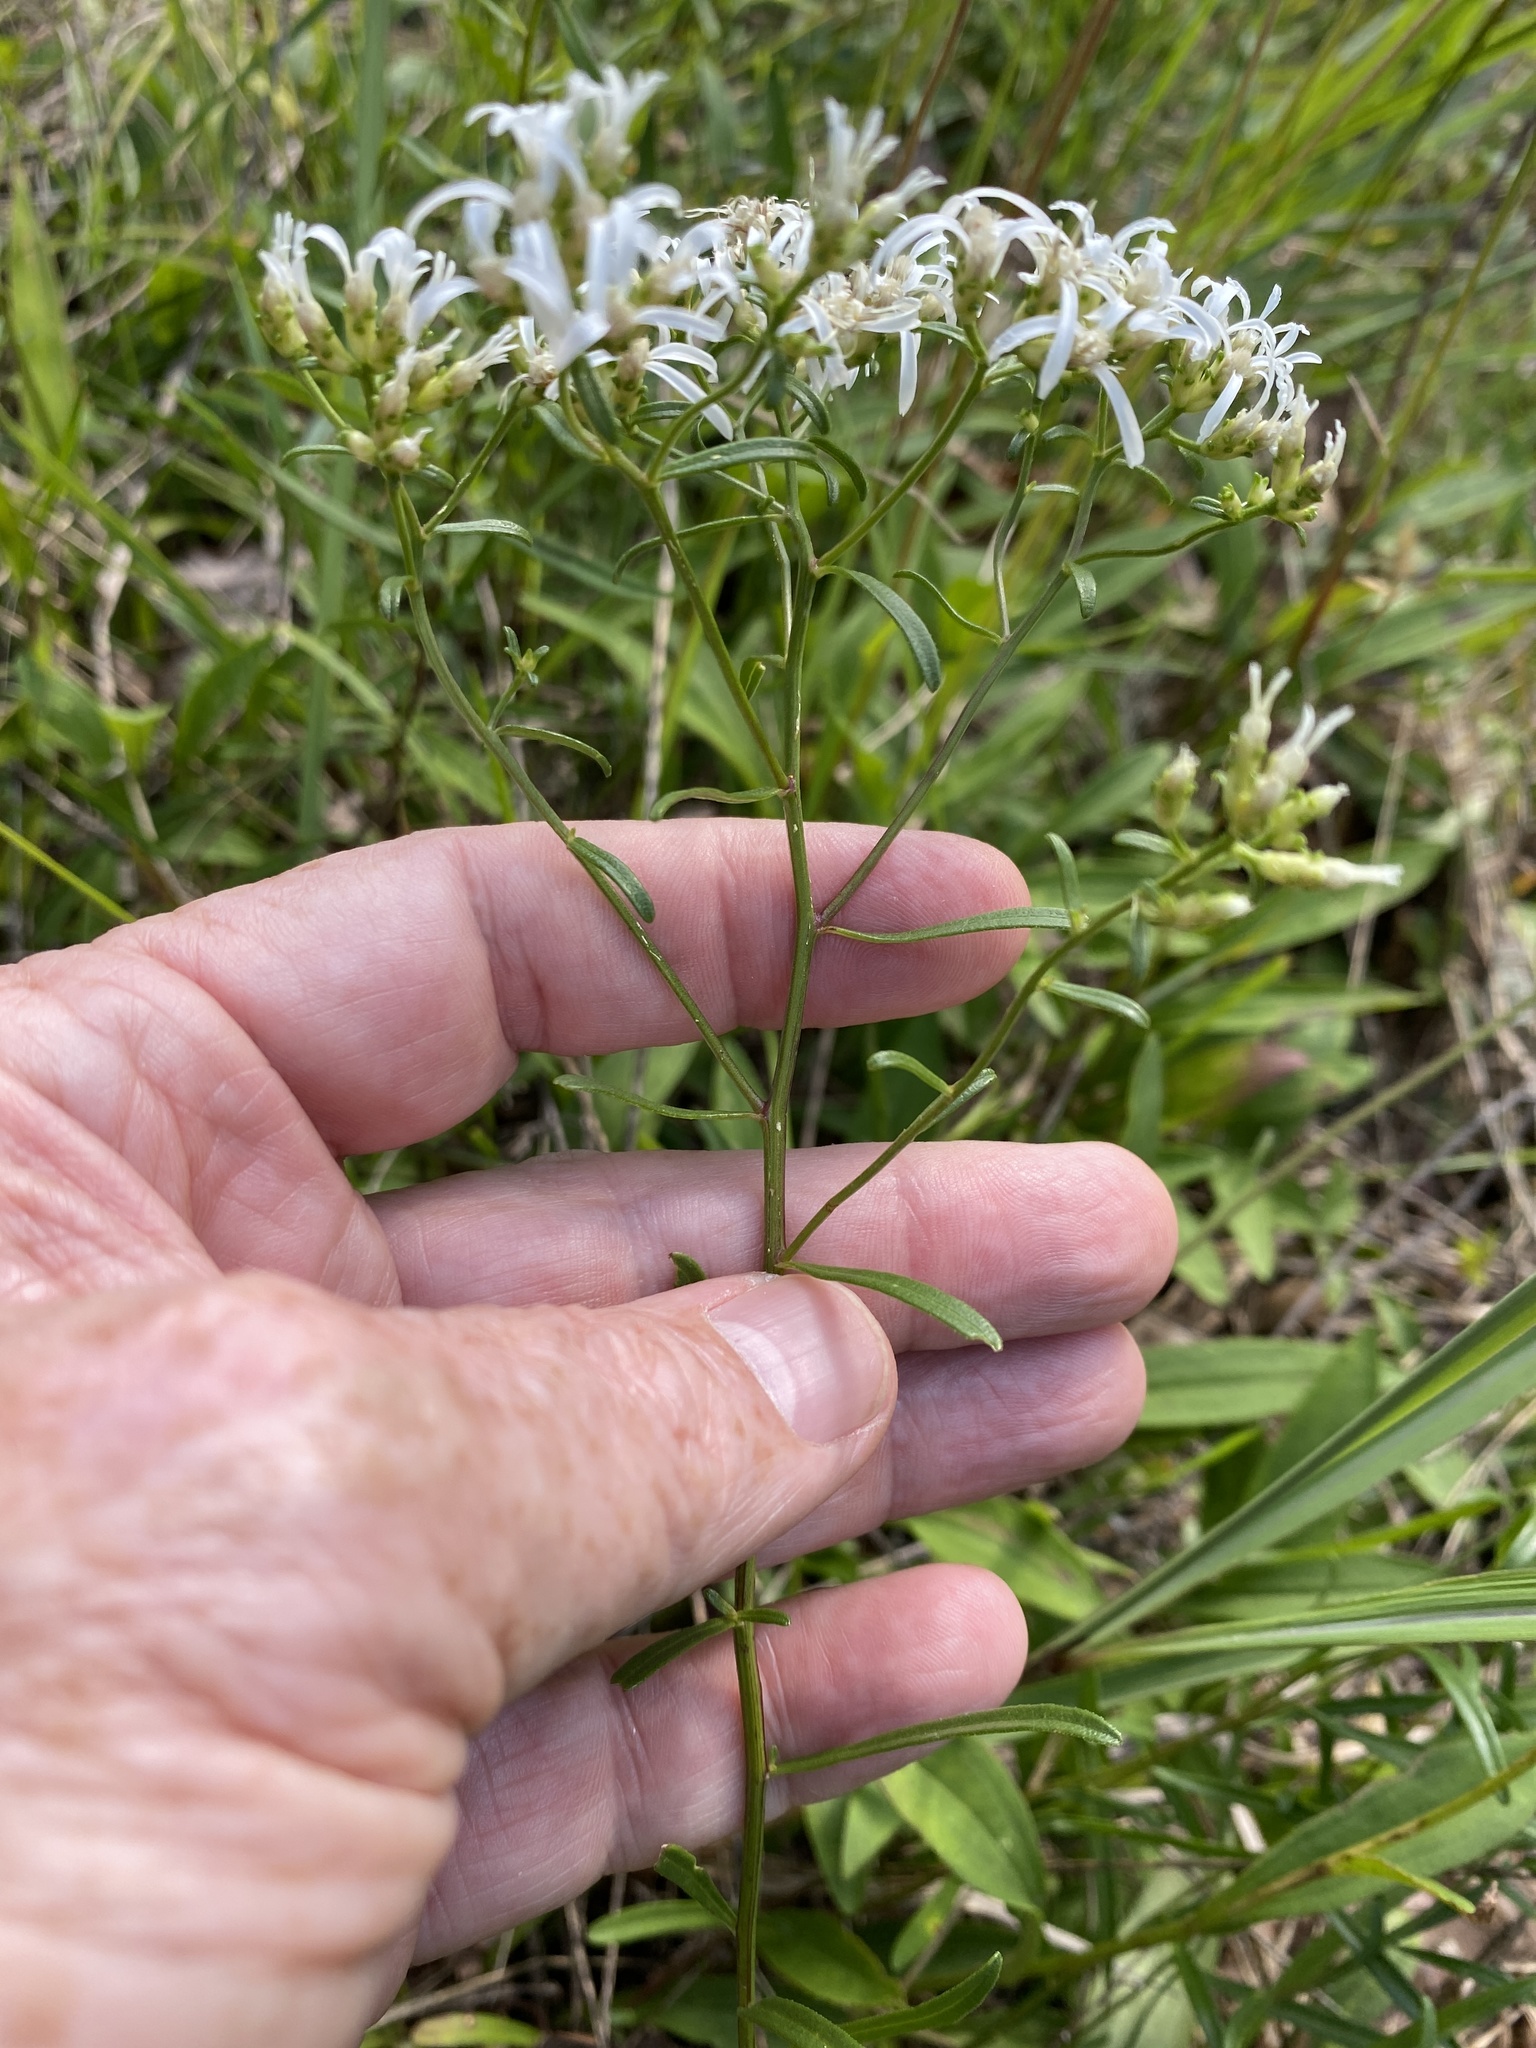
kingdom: Plantae
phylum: Tracheophyta
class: Magnoliopsida
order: Asterales
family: Asteraceae
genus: Sericocarpus
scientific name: Sericocarpus linifolius
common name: Narrow-leaf aster
